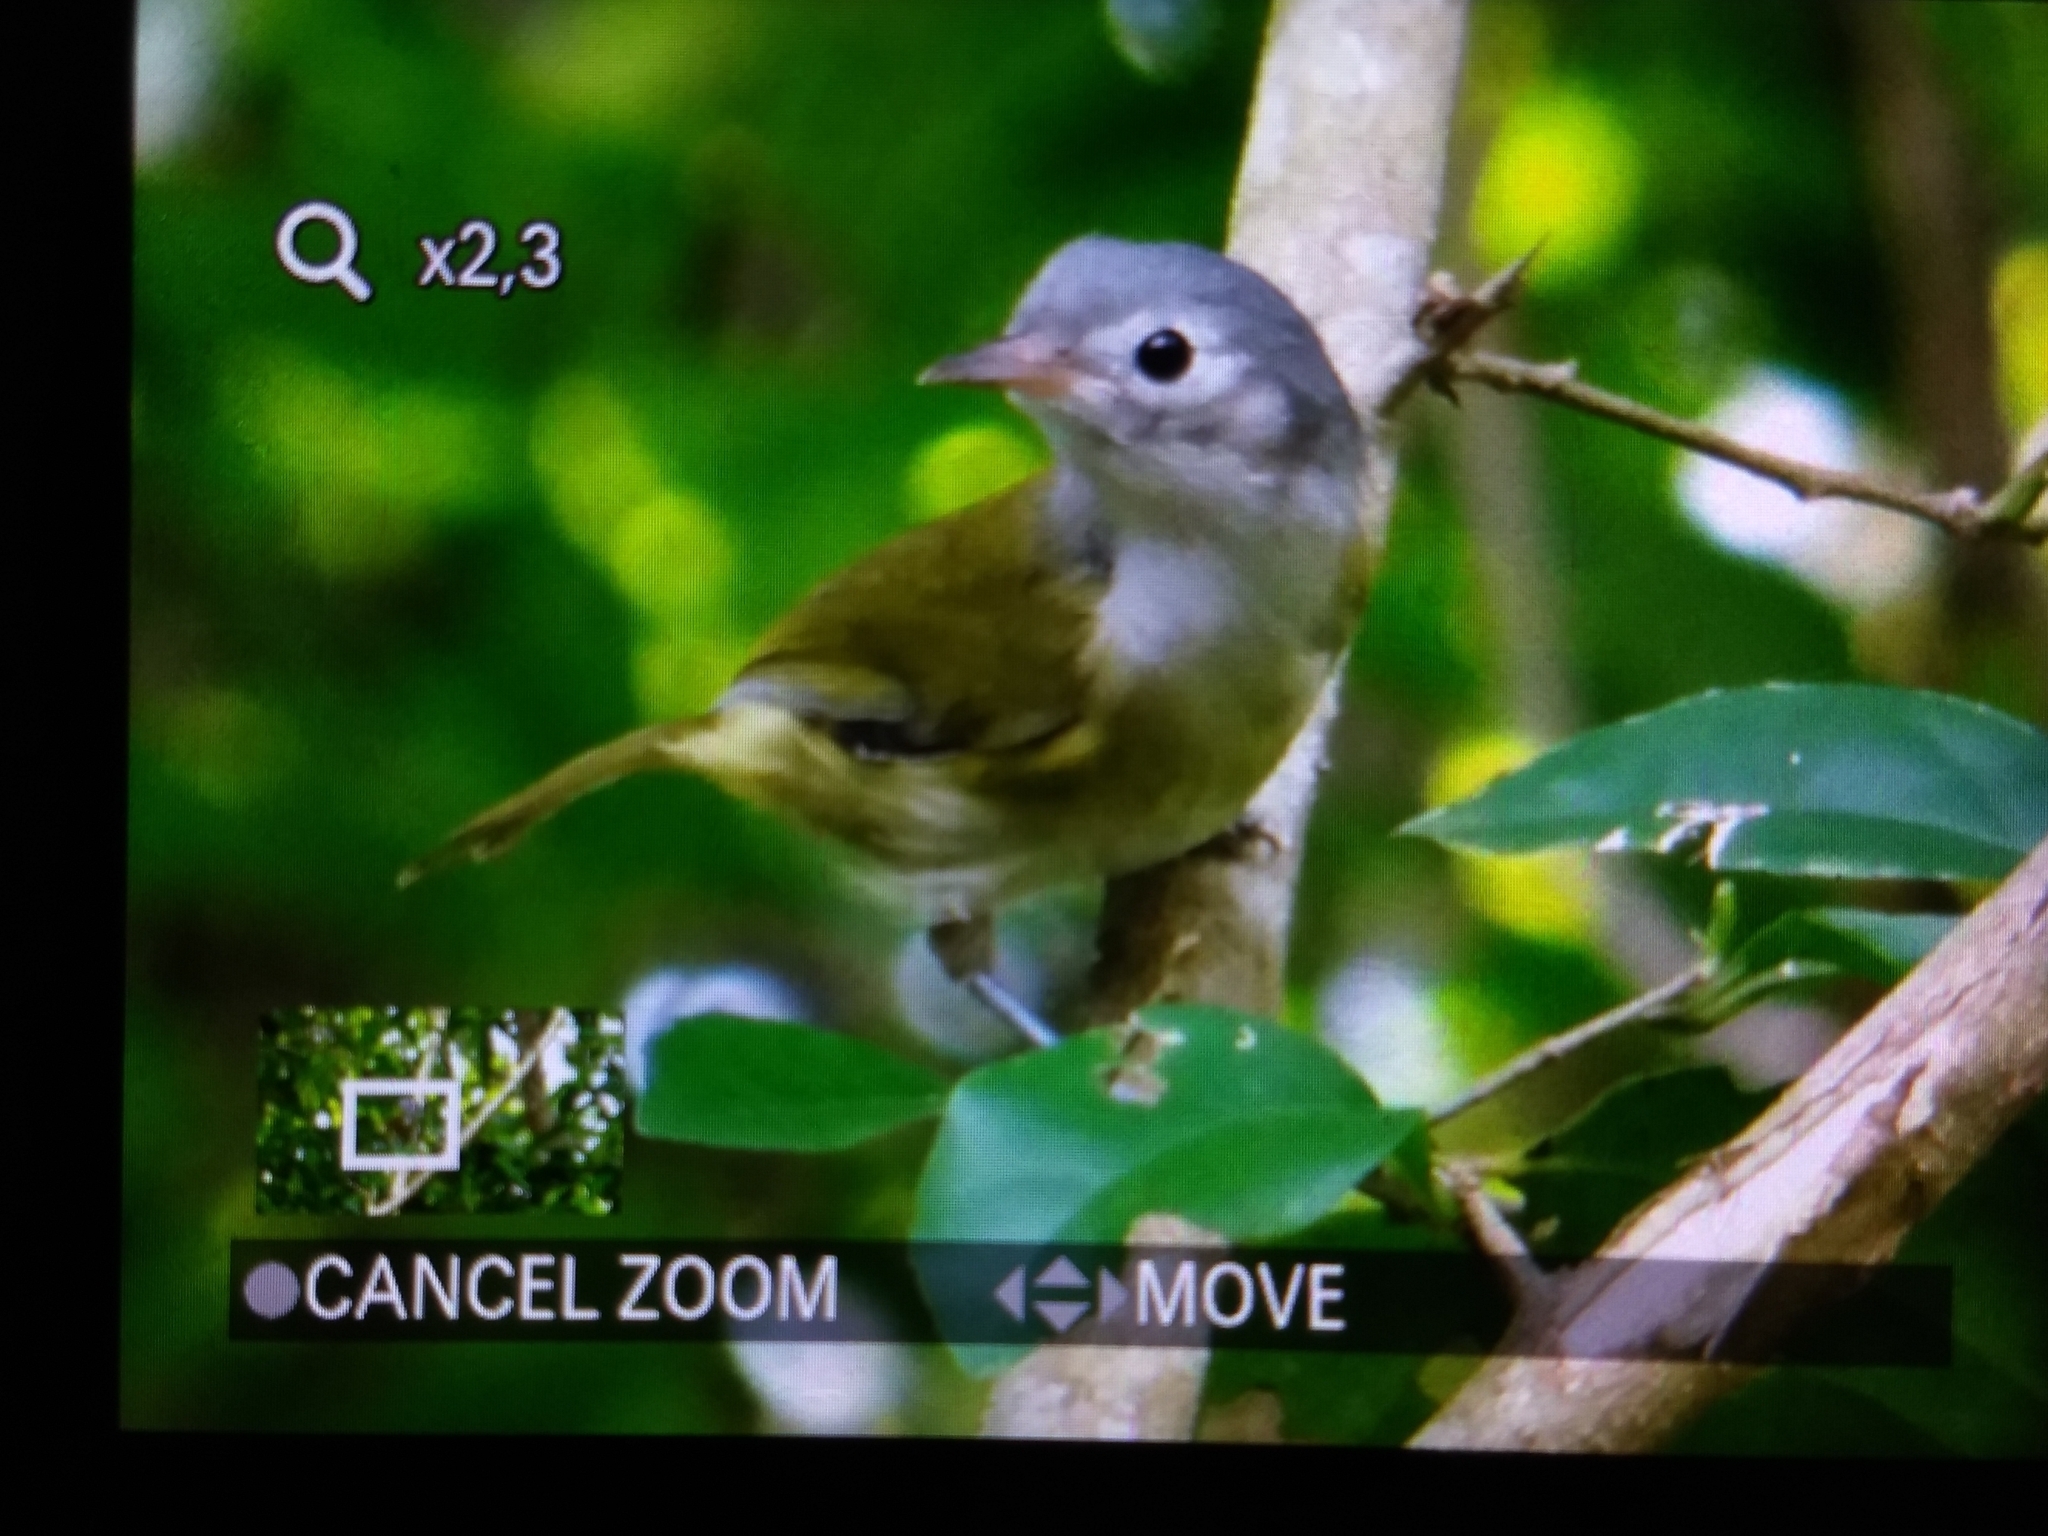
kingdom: Animalia
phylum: Chordata
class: Aves
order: Passeriformes
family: Vireonidae
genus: Hylophilus
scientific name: Hylophilus decurtatus
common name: Lesser greenlet
